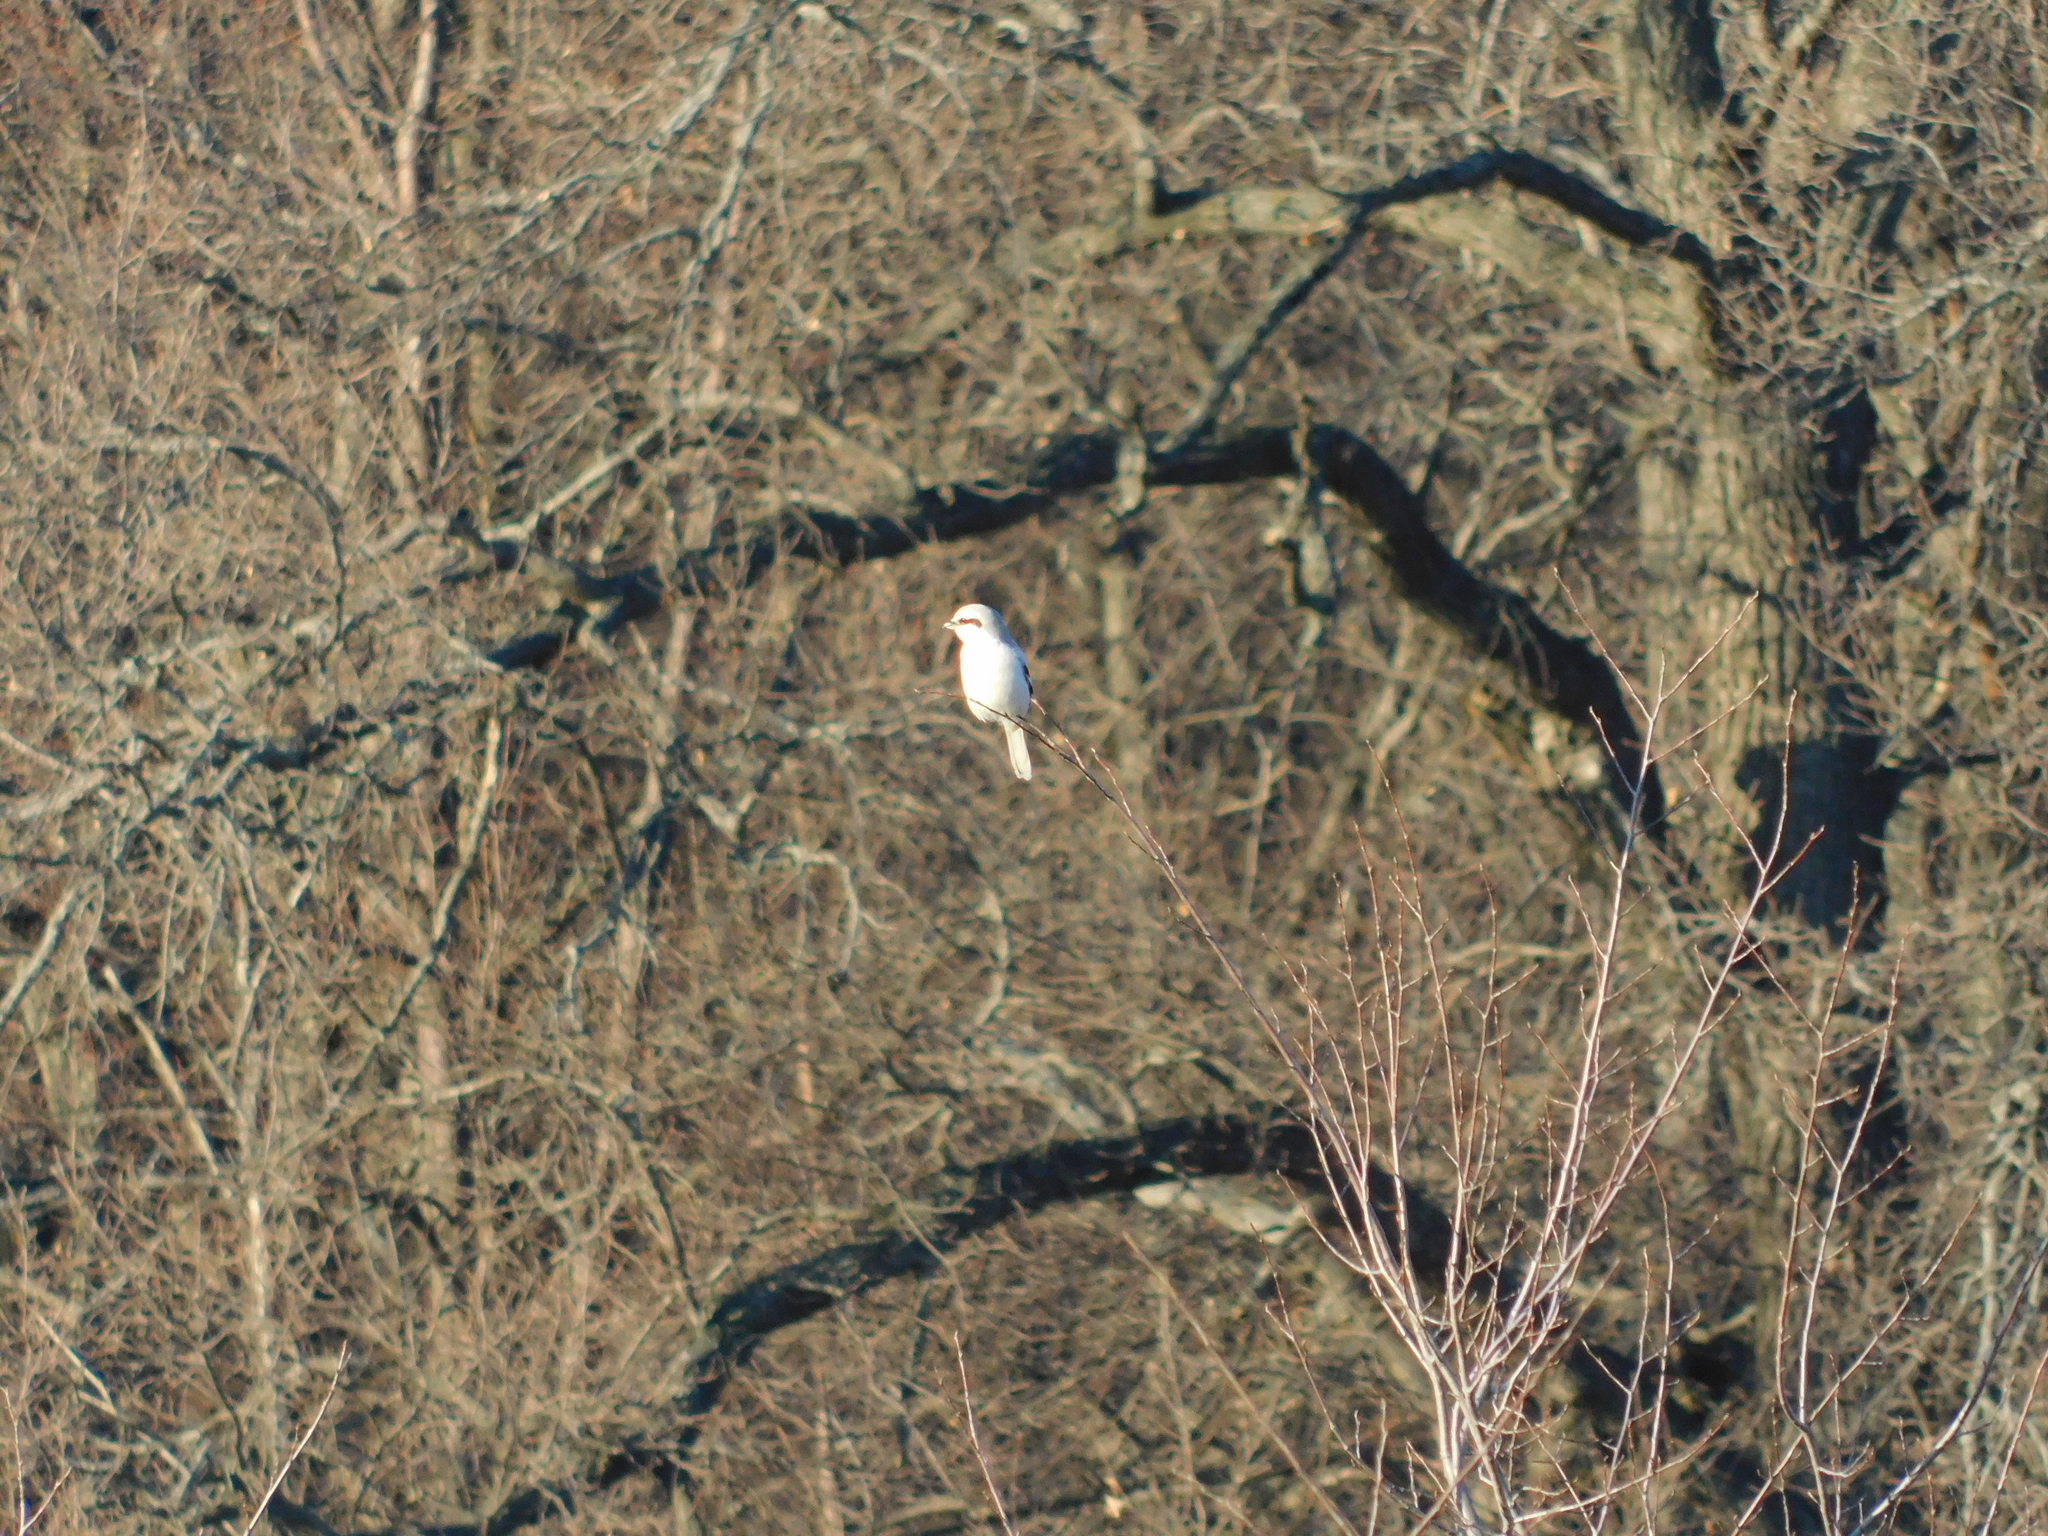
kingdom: Animalia
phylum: Chordata
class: Aves
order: Passeriformes
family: Laniidae
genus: Lanius
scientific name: Lanius excubitor
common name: Great grey shrike
